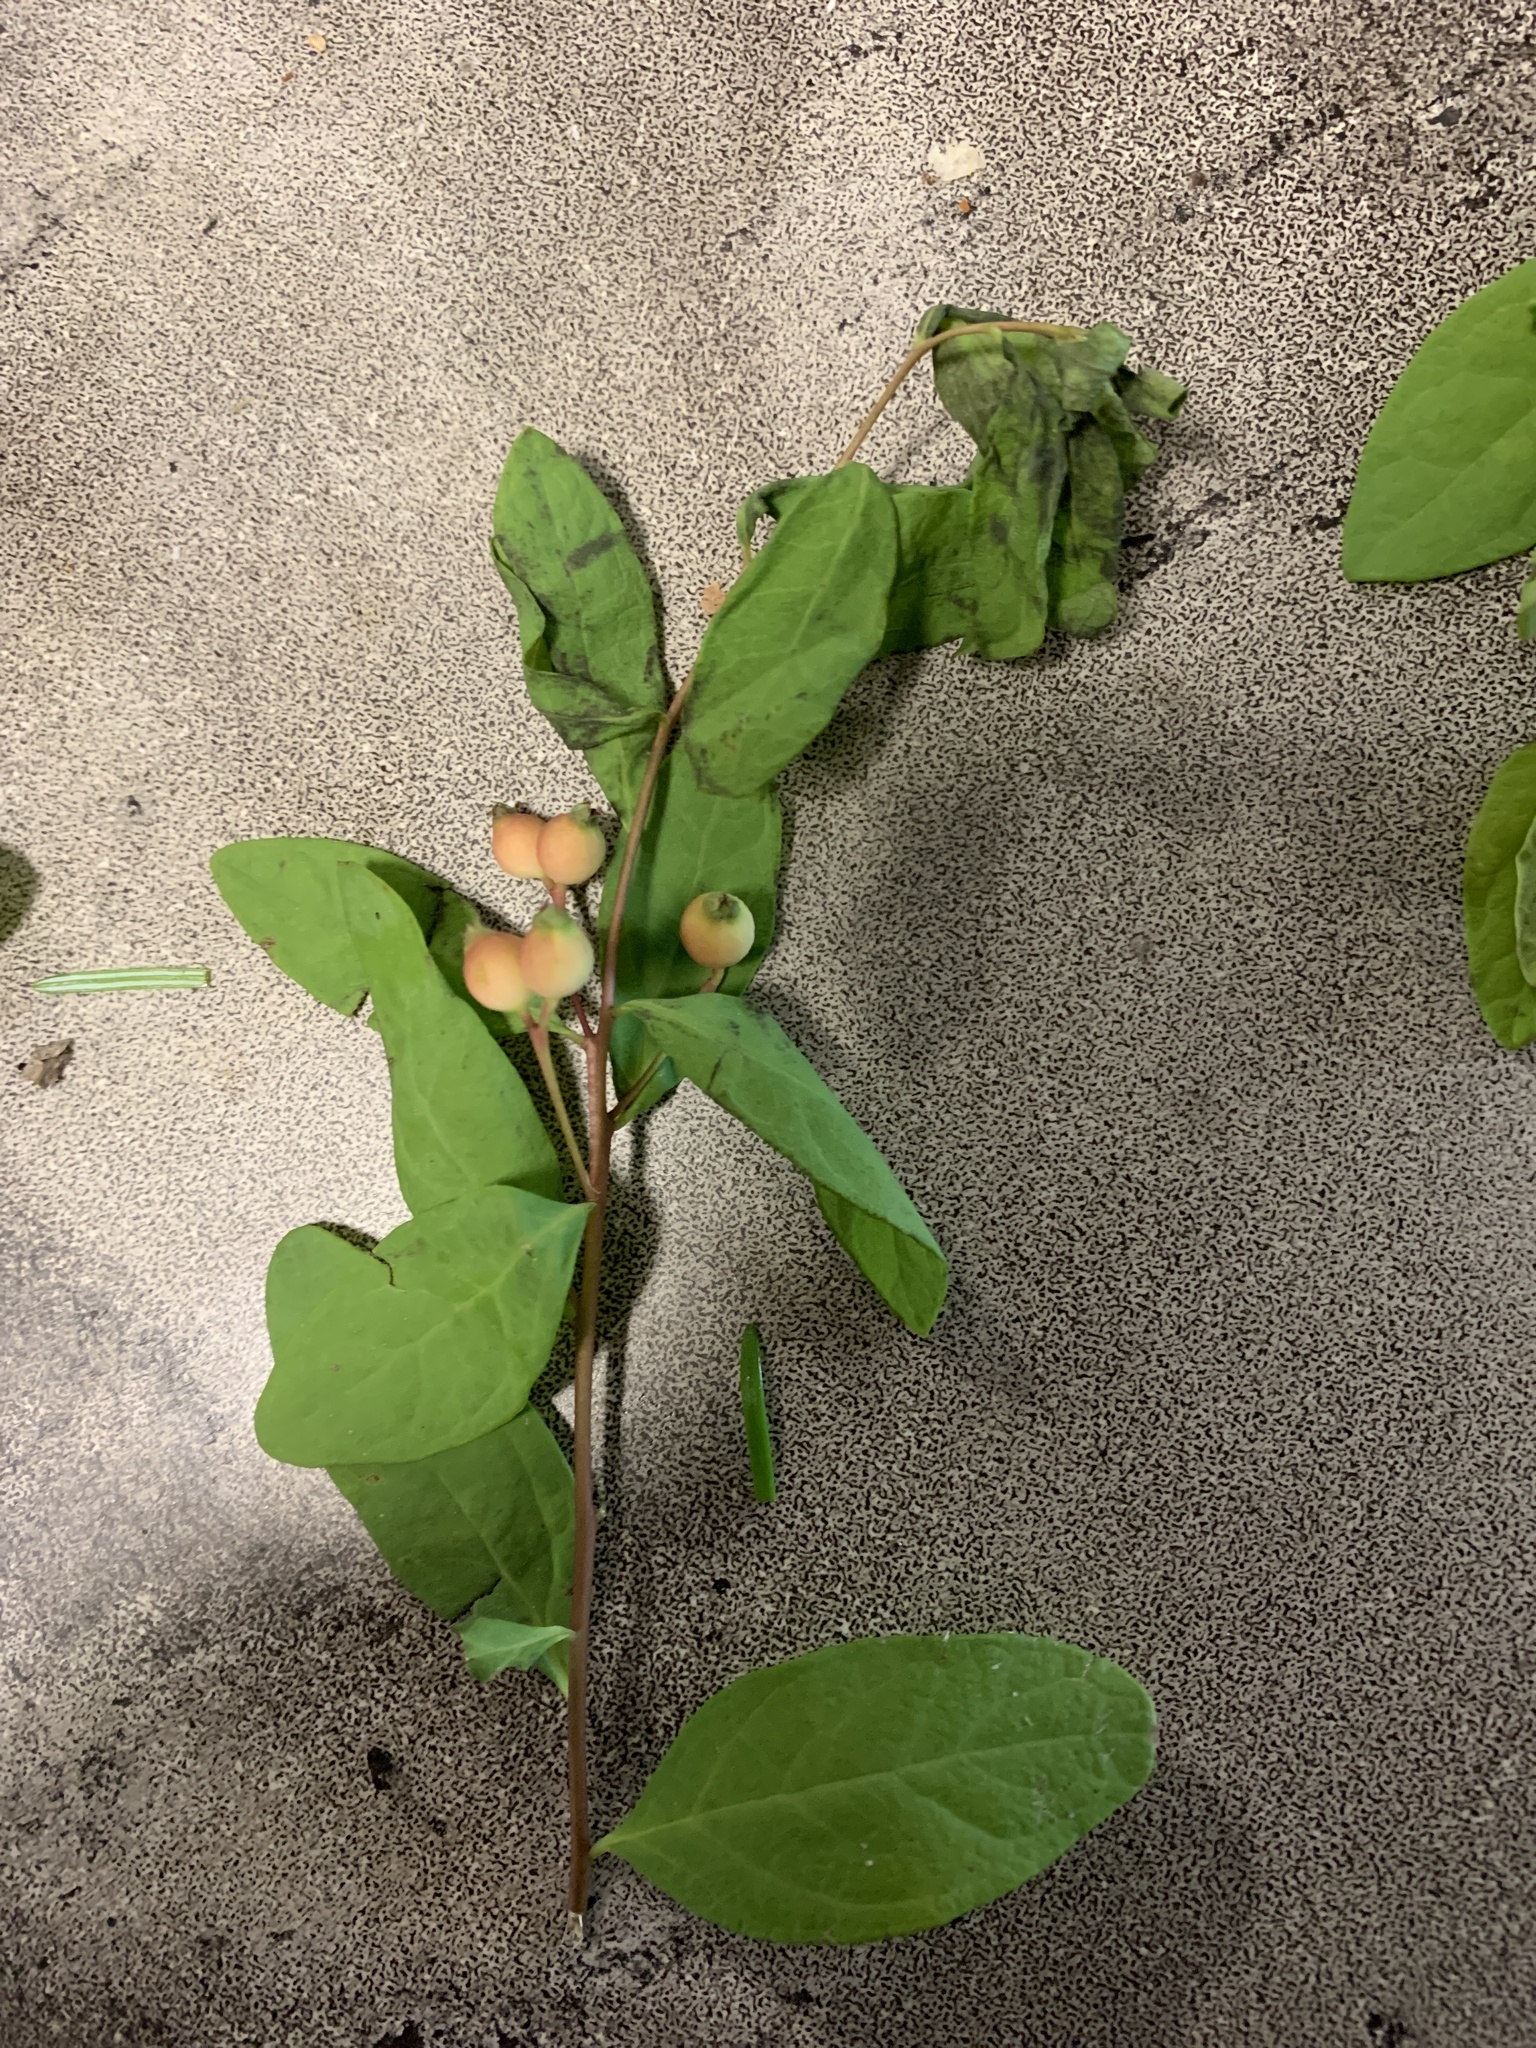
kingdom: Plantae
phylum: Tracheophyta
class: Magnoliopsida
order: Santalales
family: Comandraceae
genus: Geocaulon
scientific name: Geocaulon lividum
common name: Earthberry
